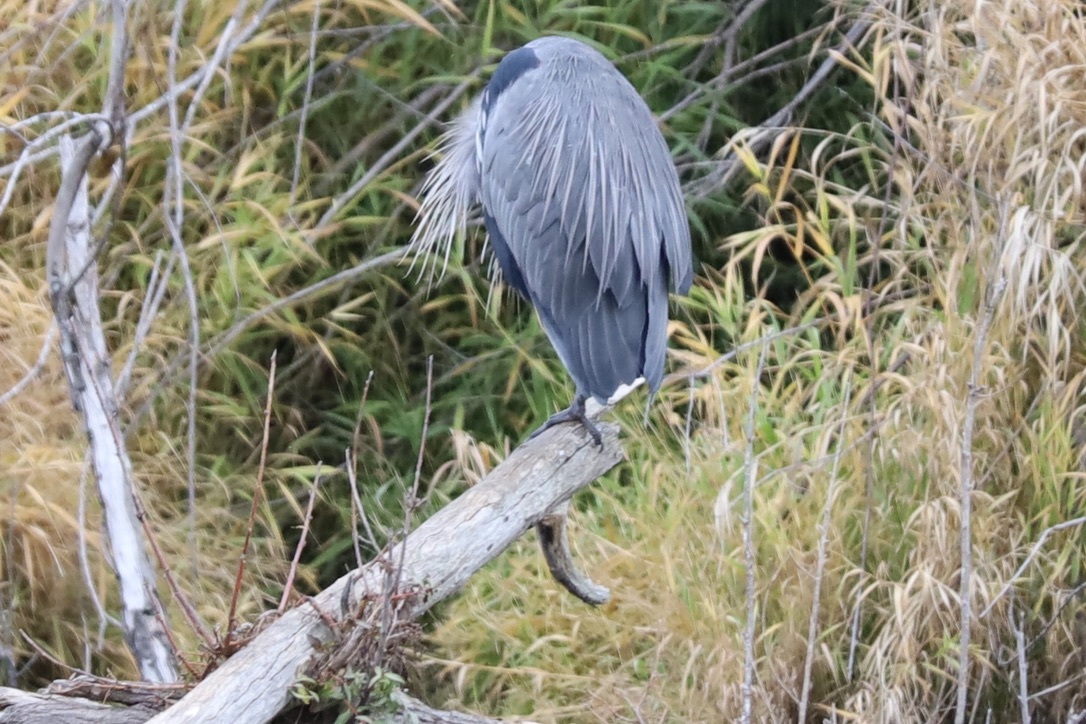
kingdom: Animalia
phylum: Chordata
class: Aves
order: Pelecaniformes
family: Ardeidae
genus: Ardea
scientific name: Ardea herodias
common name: Great blue heron
